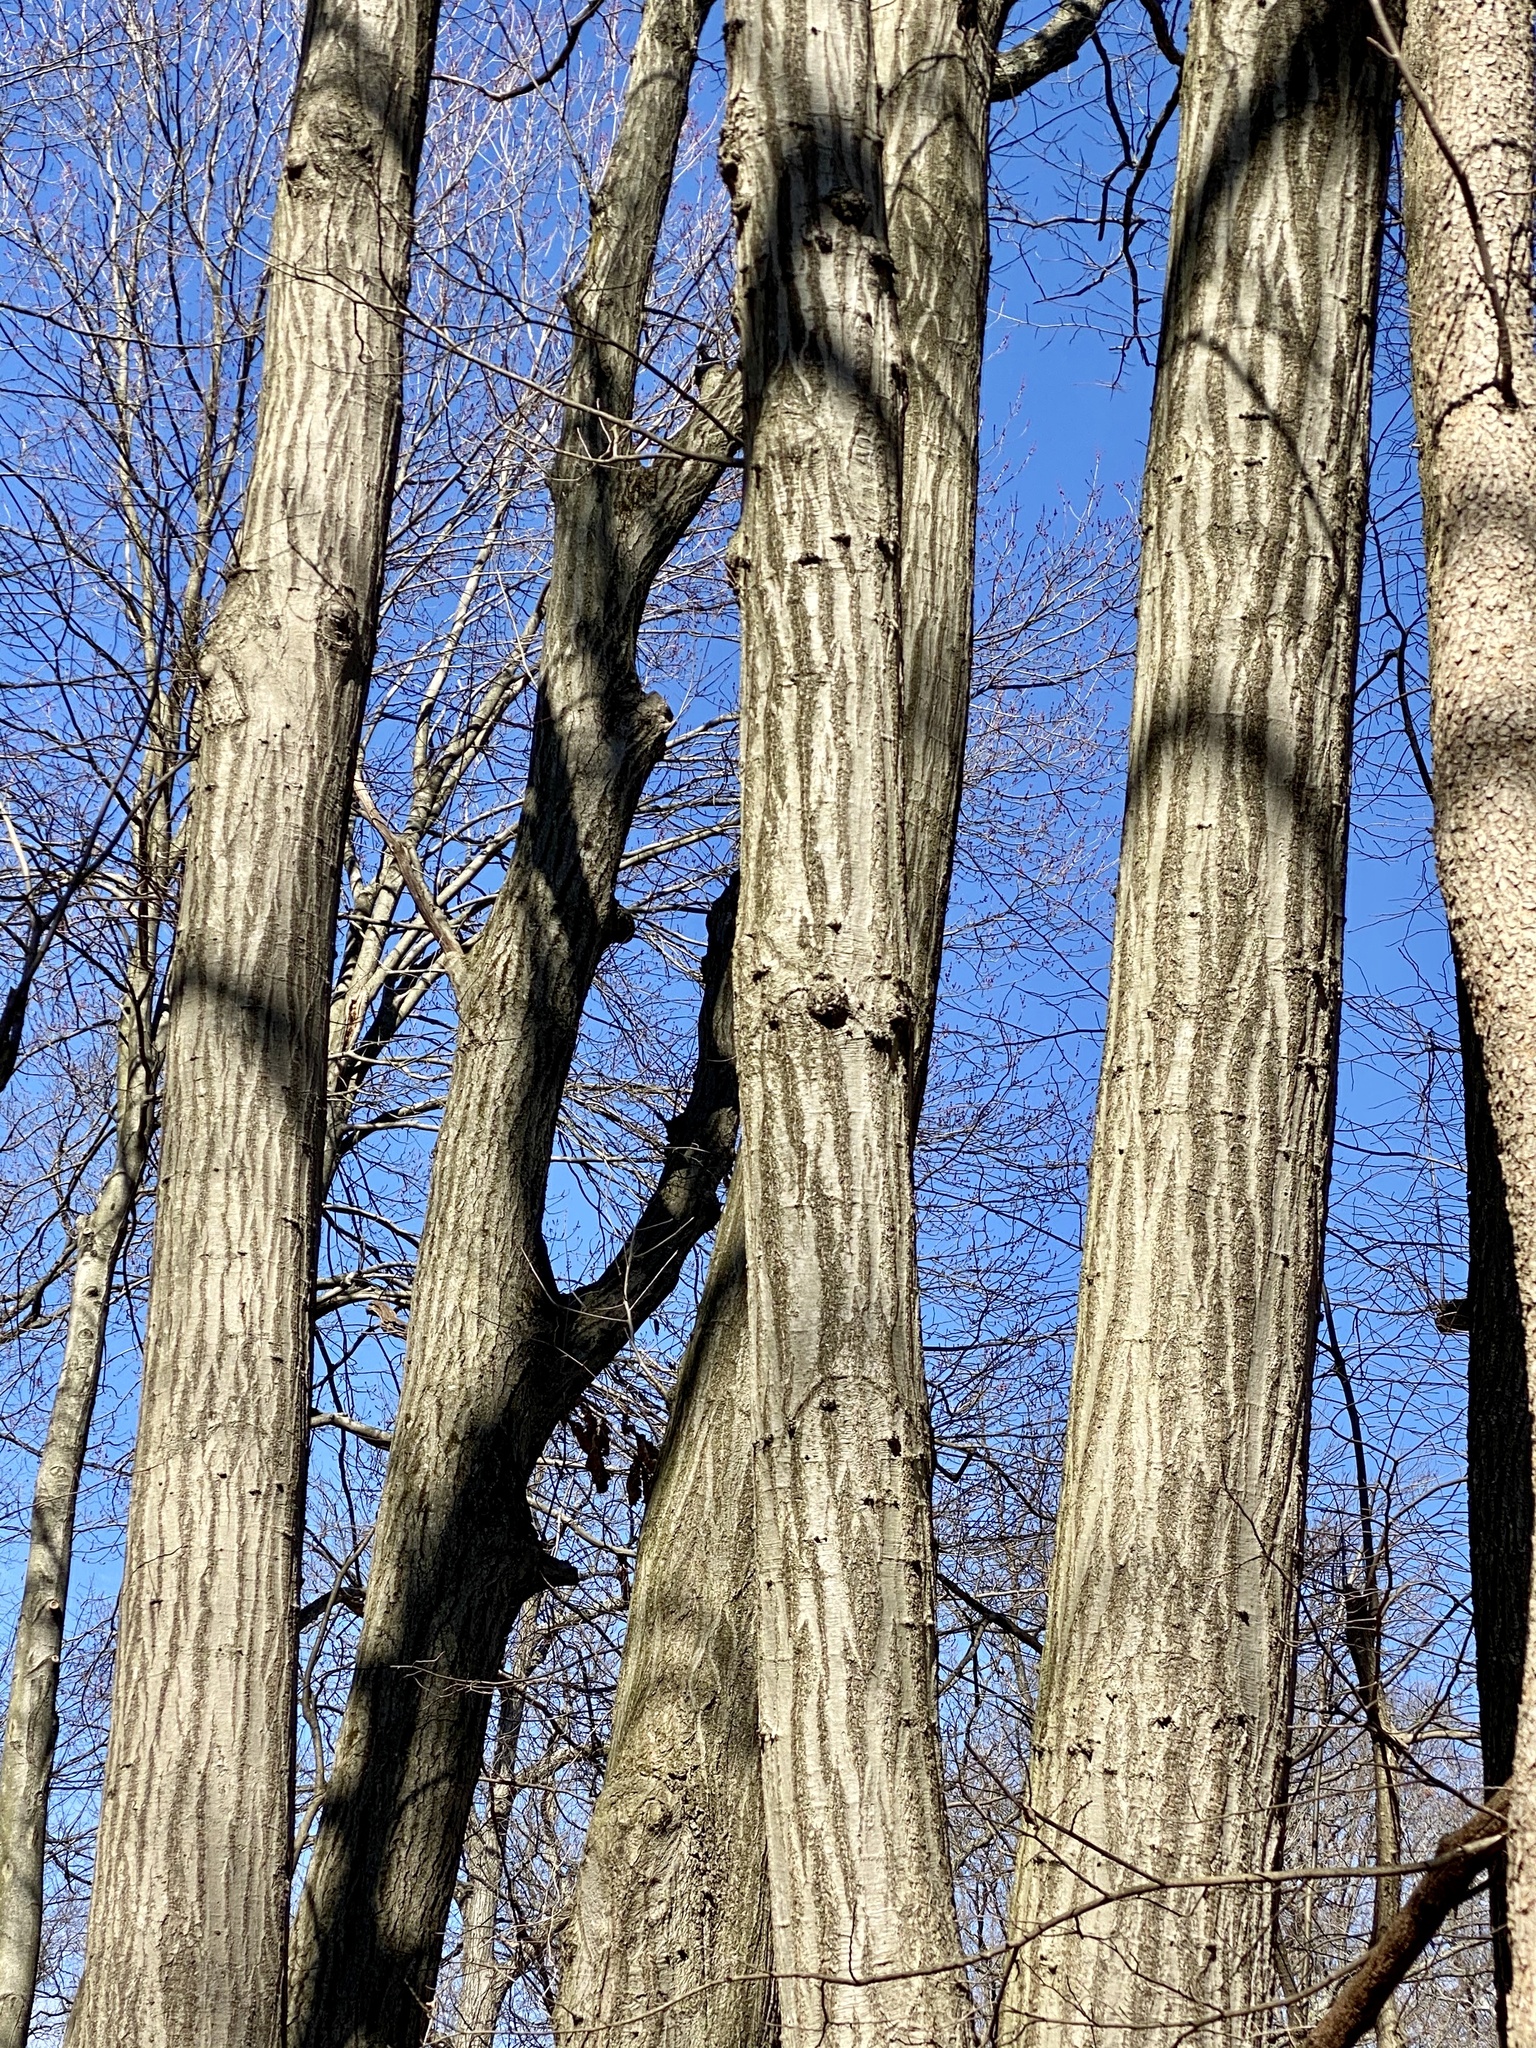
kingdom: Plantae
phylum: Tracheophyta
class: Magnoliopsida
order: Fagales
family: Fagaceae
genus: Quercus
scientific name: Quercus rubra
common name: Red oak
